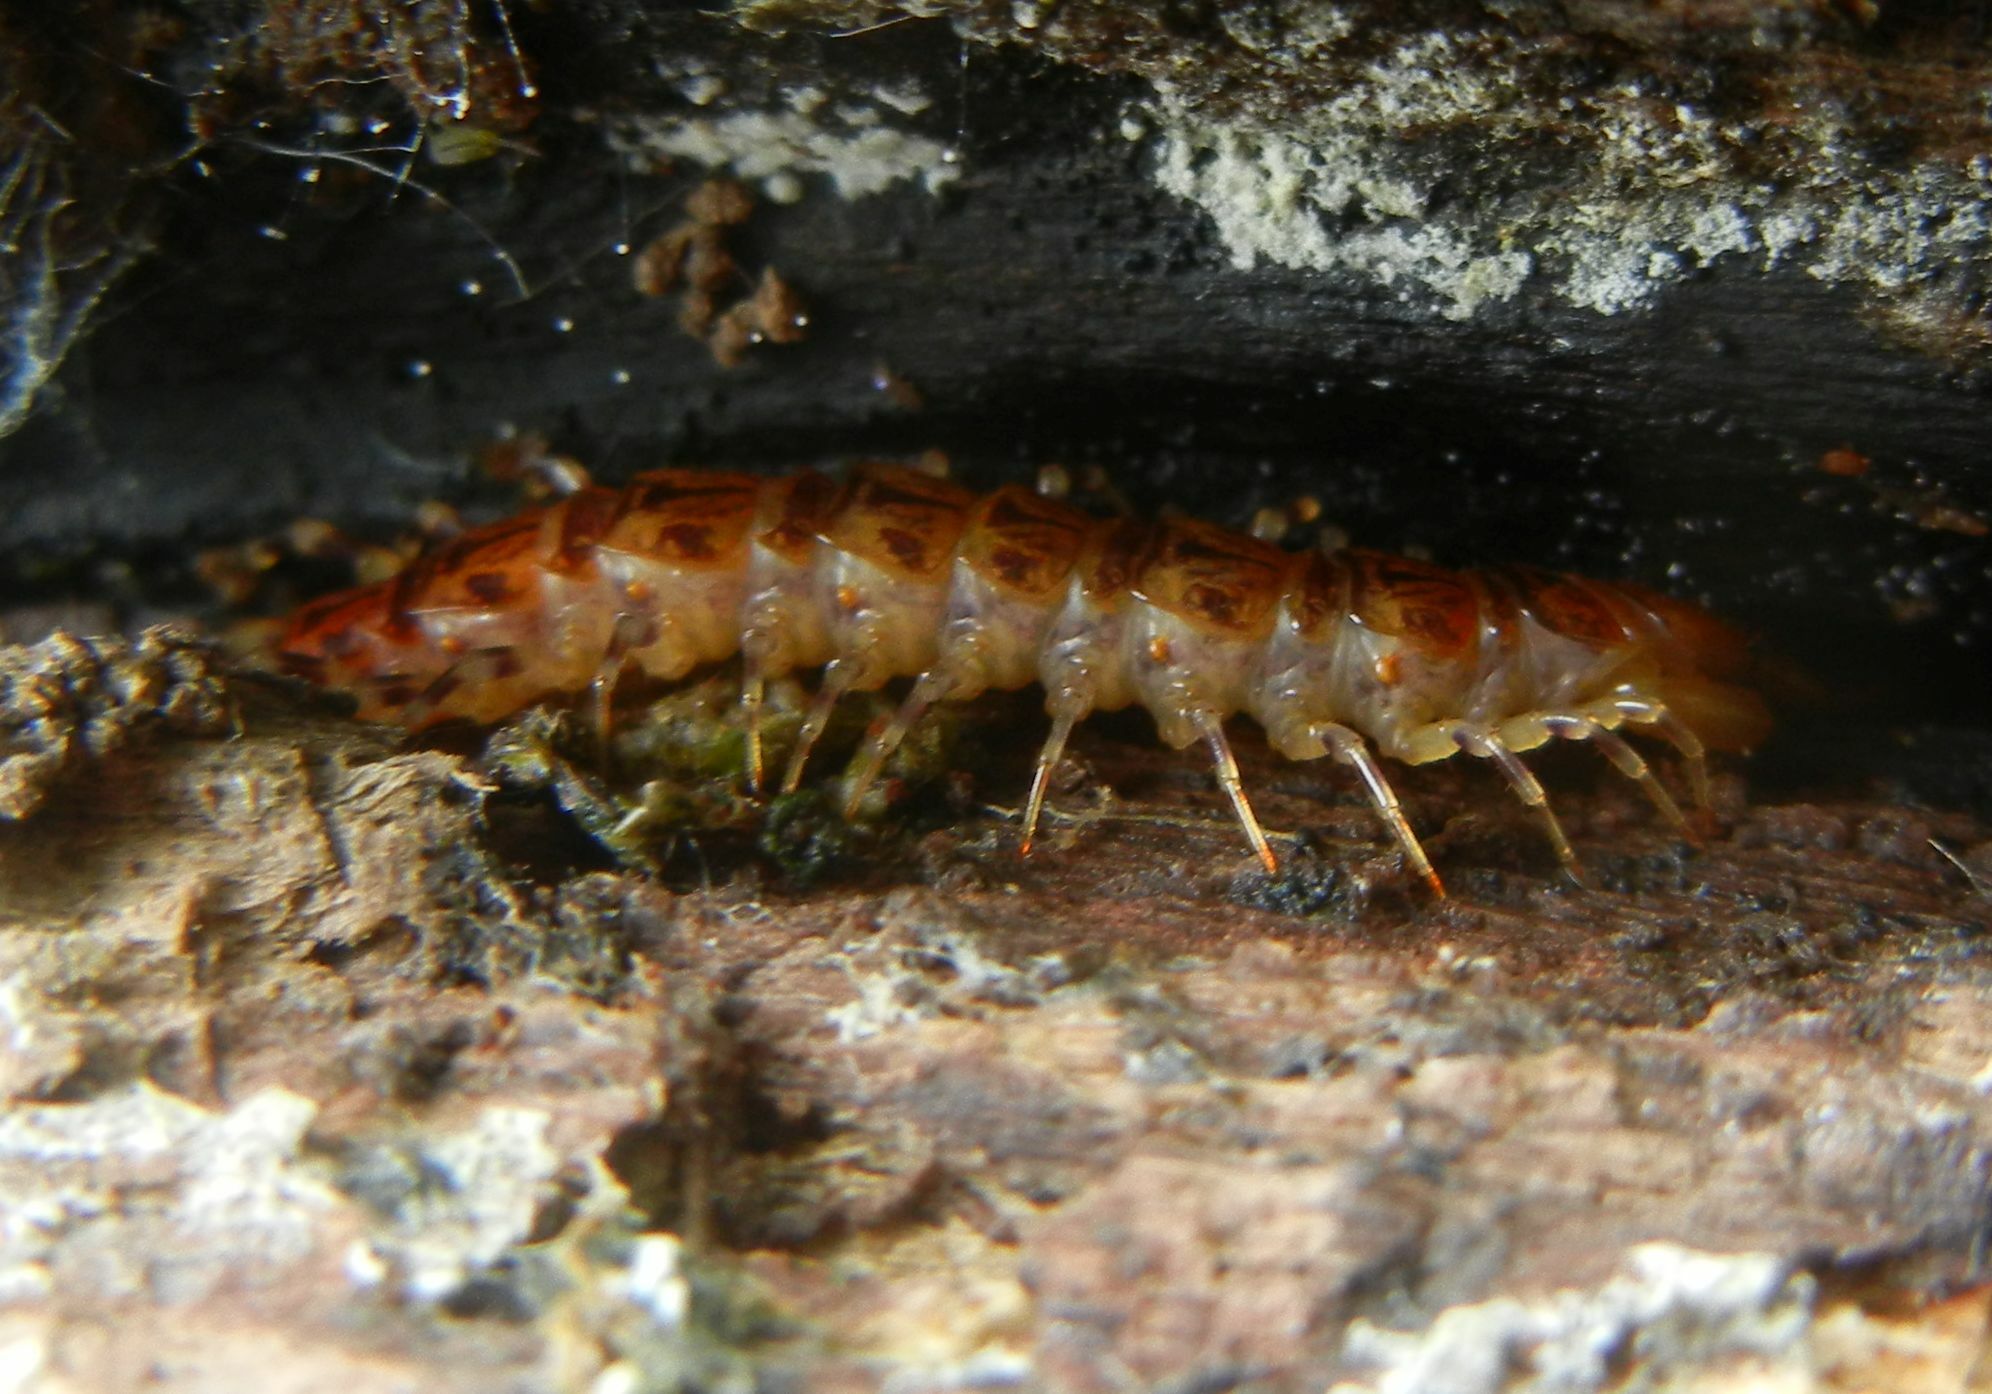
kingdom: Animalia
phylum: Arthropoda
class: Chilopoda
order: Lithobiomorpha
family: Lithobiidae
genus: Lithobius
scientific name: Lithobius variegatus
